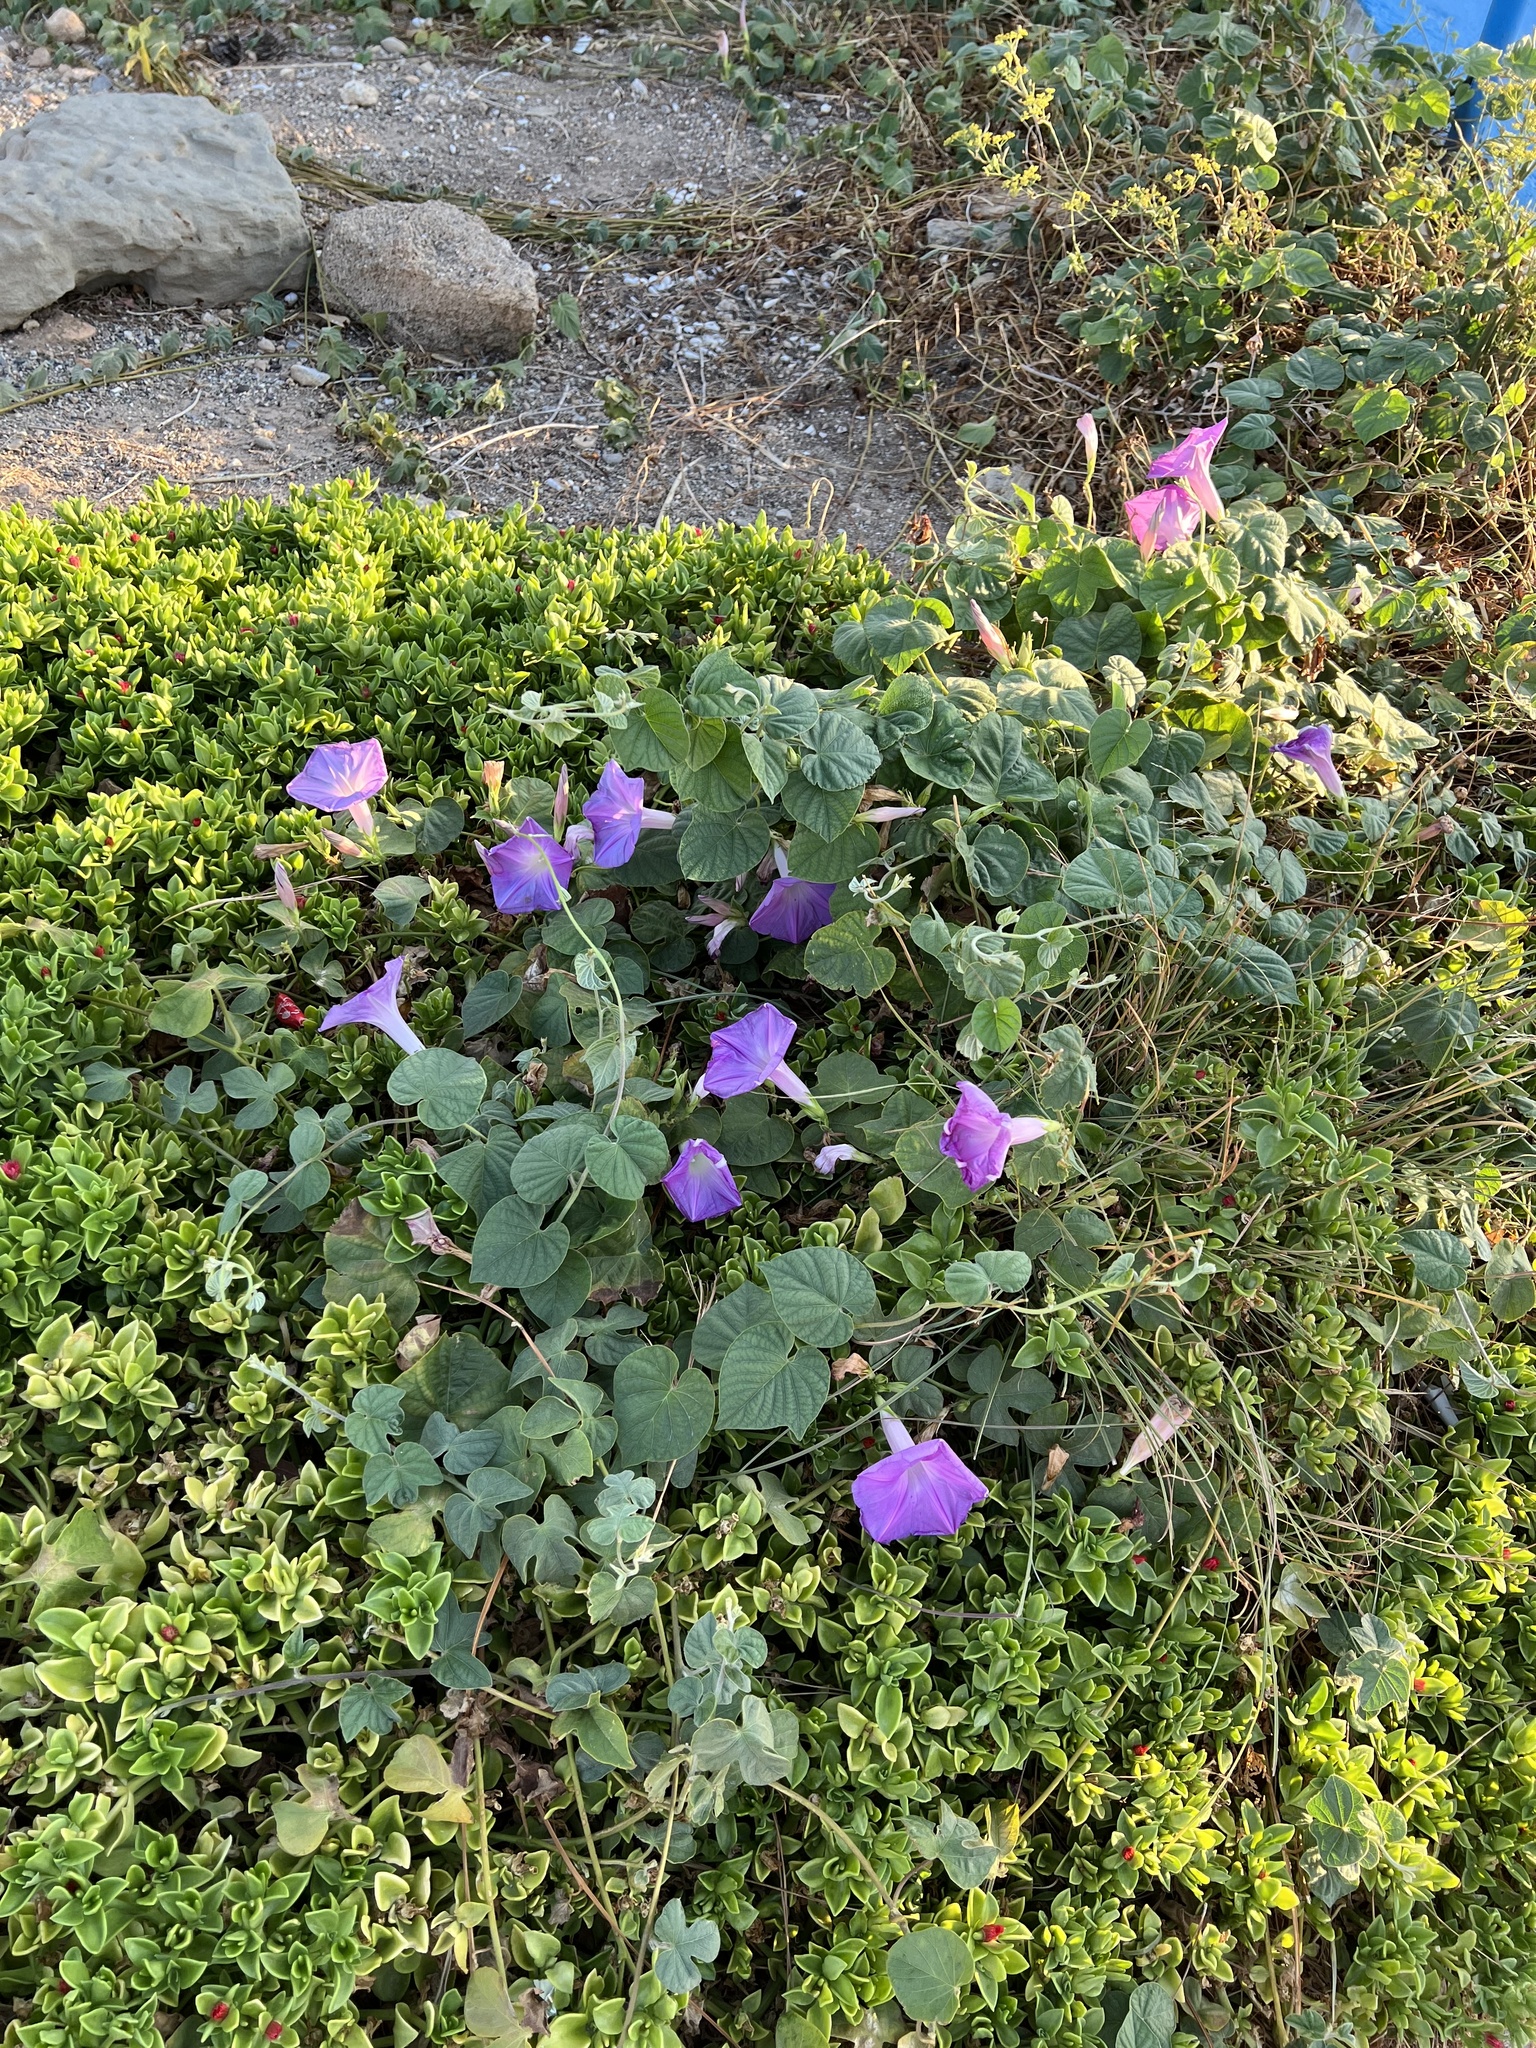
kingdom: Plantae
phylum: Tracheophyta
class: Magnoliopsida
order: Solanales
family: Convolvulaceae
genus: Ipomoea
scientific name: Ipomoea indica
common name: Blue dawnflower
